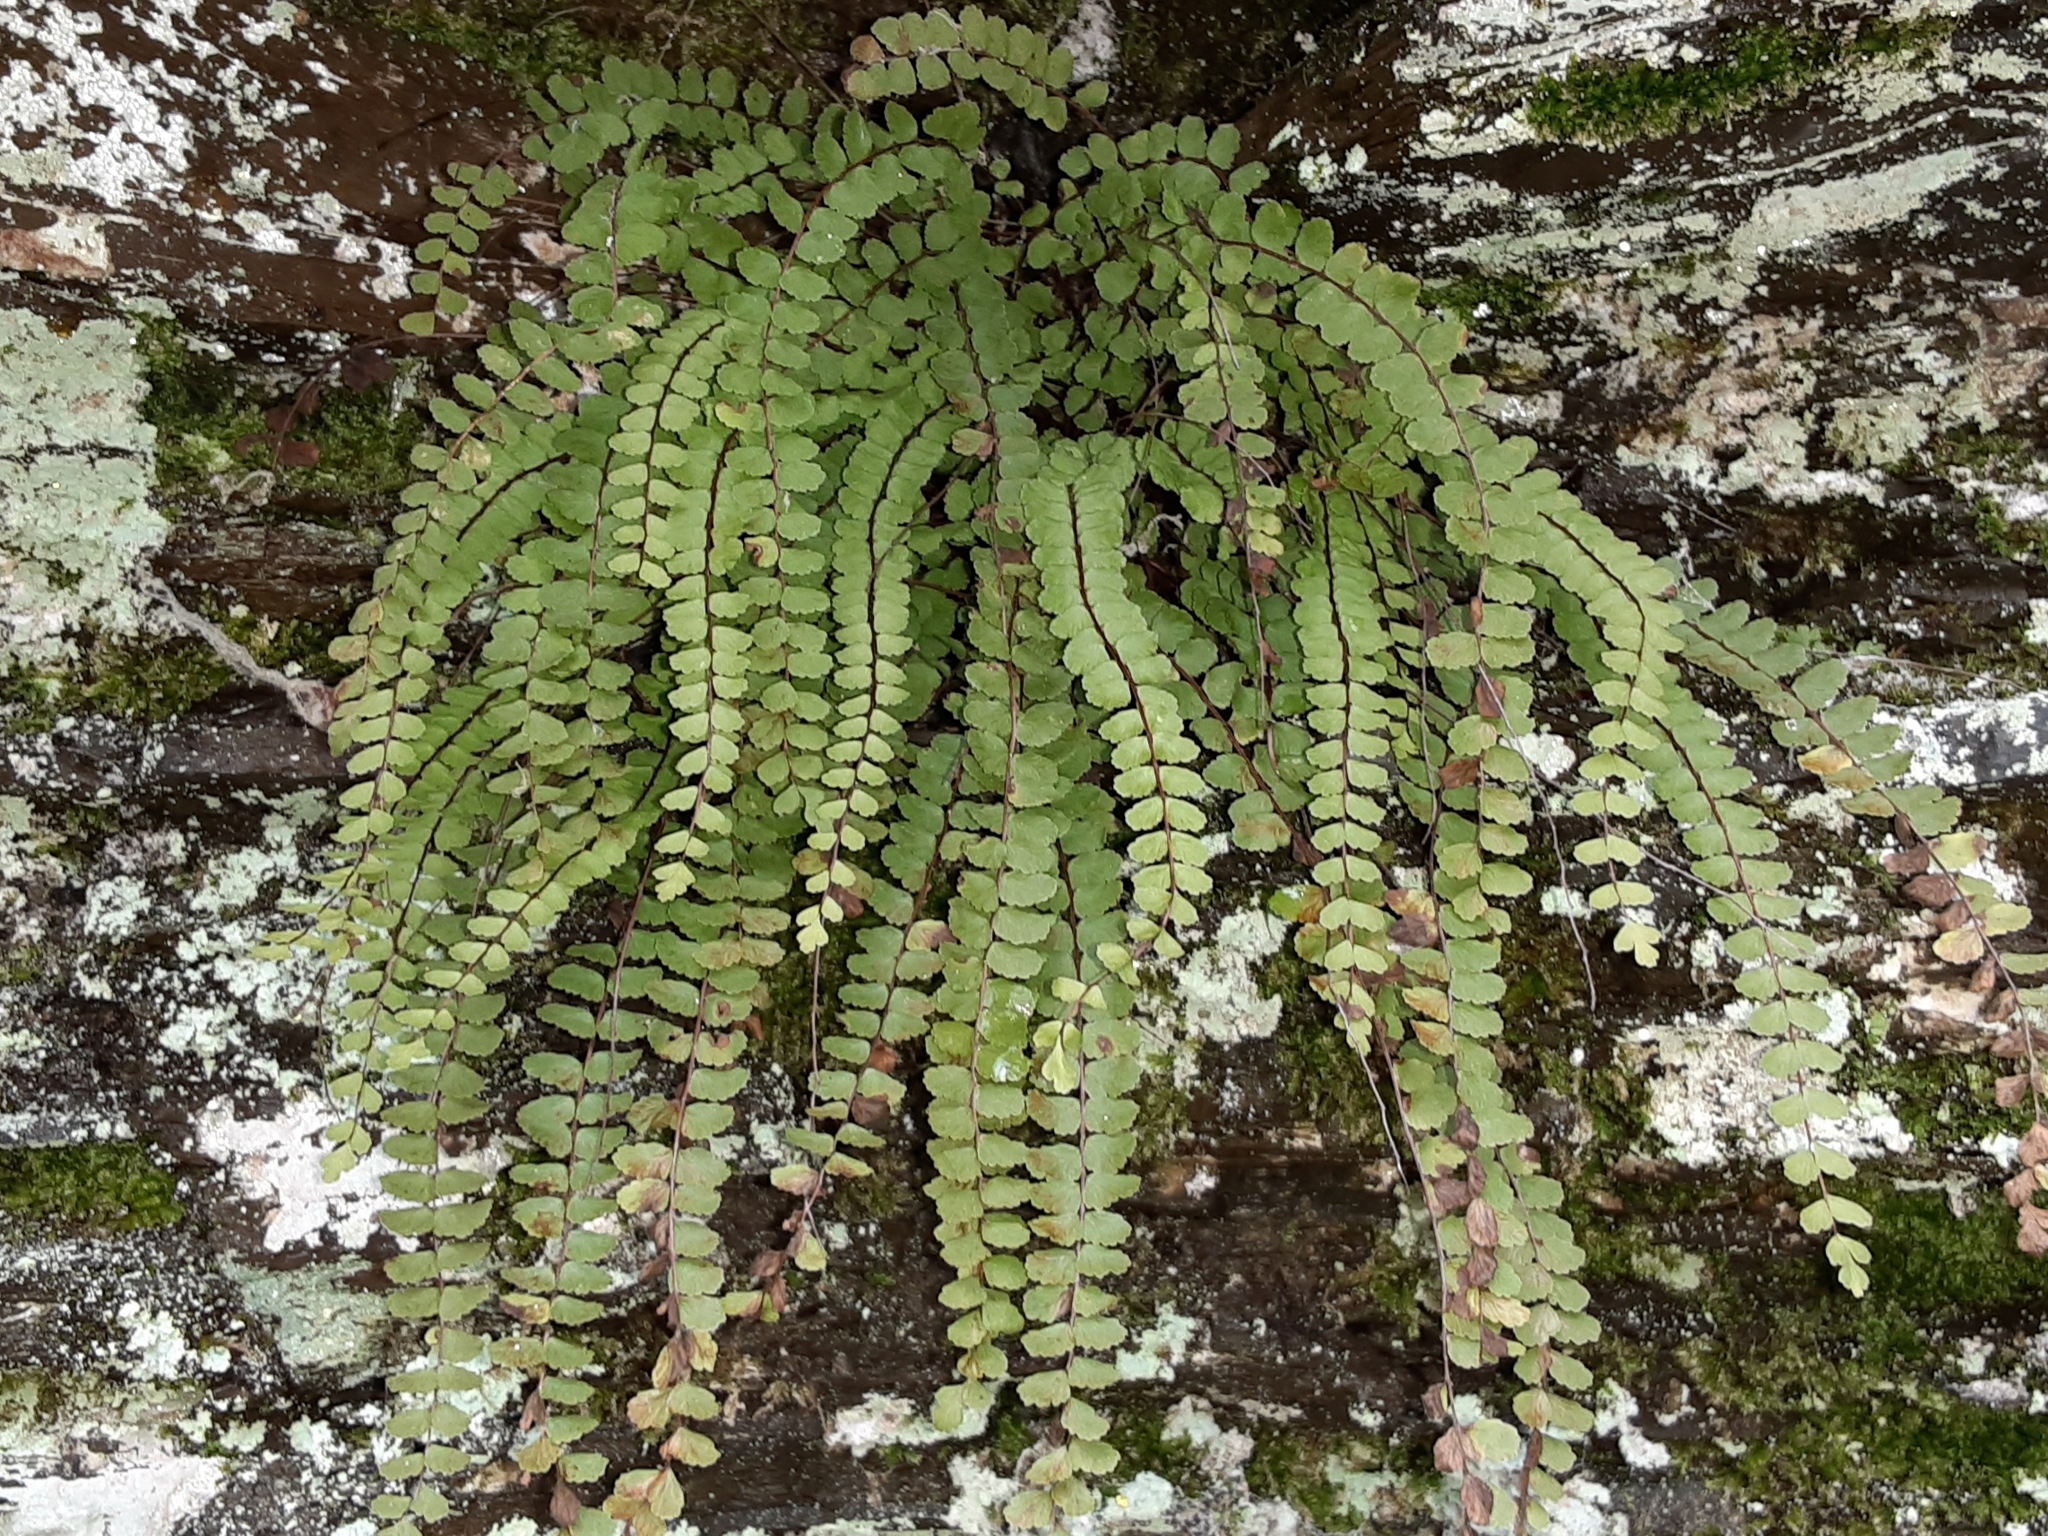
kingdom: Plantae
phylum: Tracheophyta
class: Polypodiopsida
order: Polypodiales
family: Aspleniaceae
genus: Asplenium
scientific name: Asplenium trichomanes
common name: Maidenhair spleenwort
